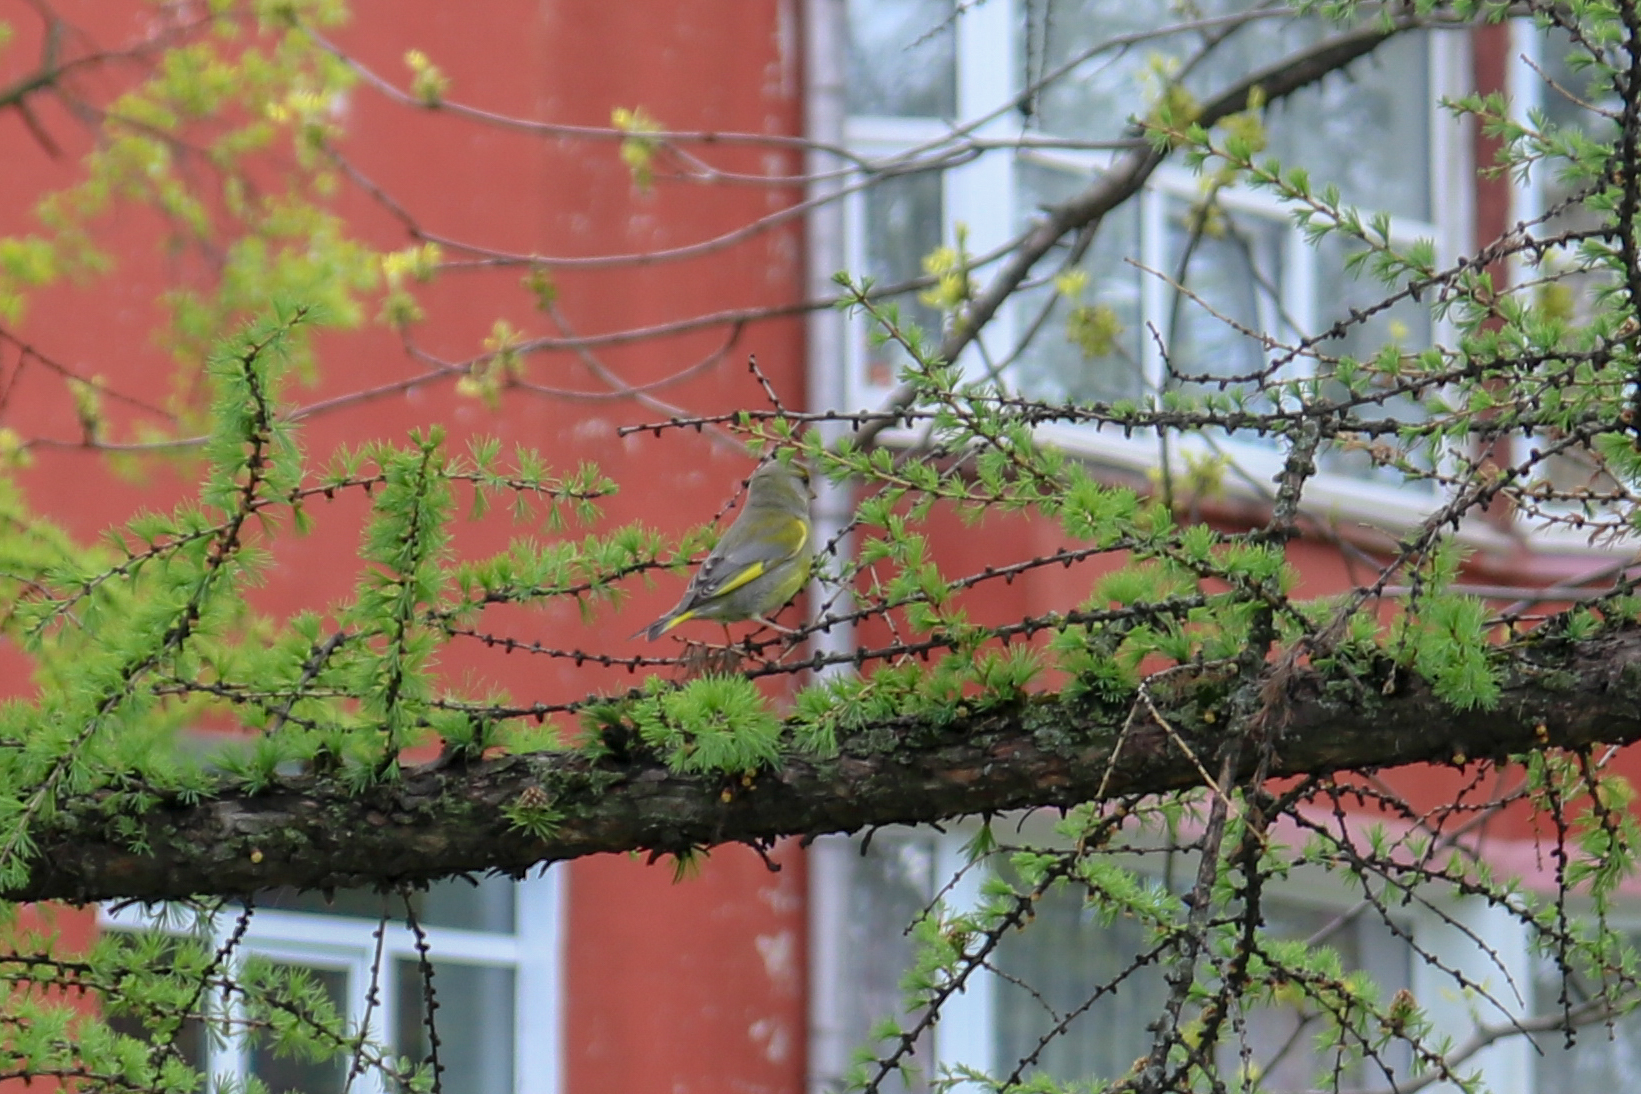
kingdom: Plantae
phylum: Tracheophyta
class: Liliopsida
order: Poales
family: Poaceae
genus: Chloris
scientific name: Chloris chloris
